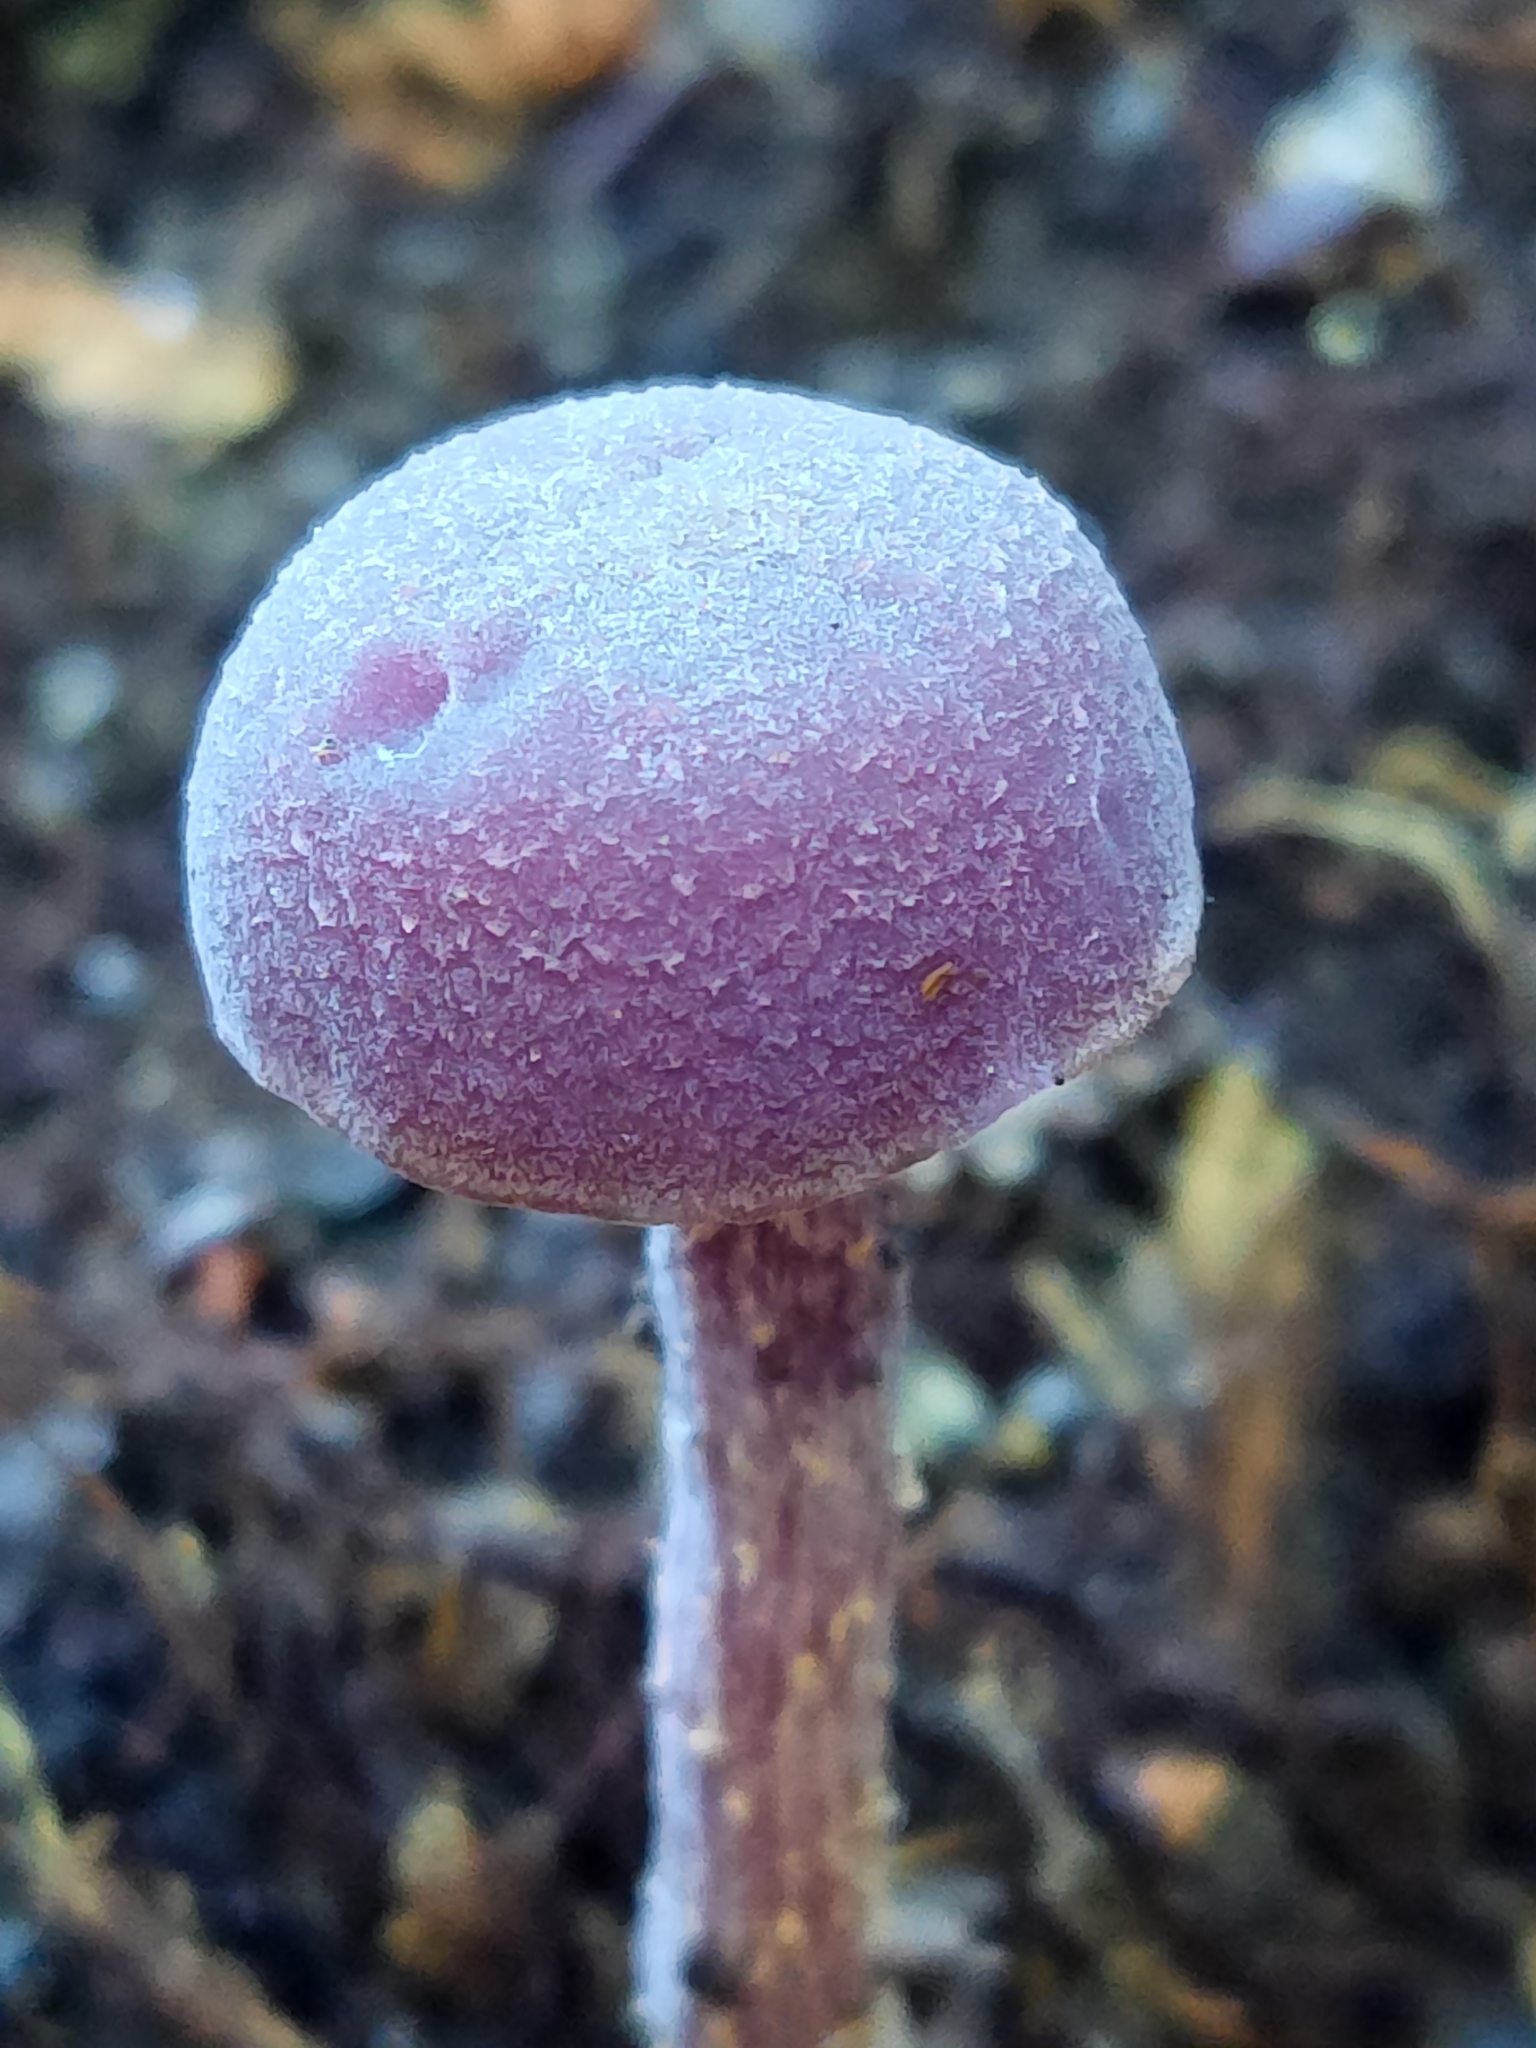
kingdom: Fungi
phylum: Basidiomycota
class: Agaricomycetes
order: Agaricales
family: Hydnangiaceae
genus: Laccaria
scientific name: Laccaria amethystina
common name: Amethyst deceiver
